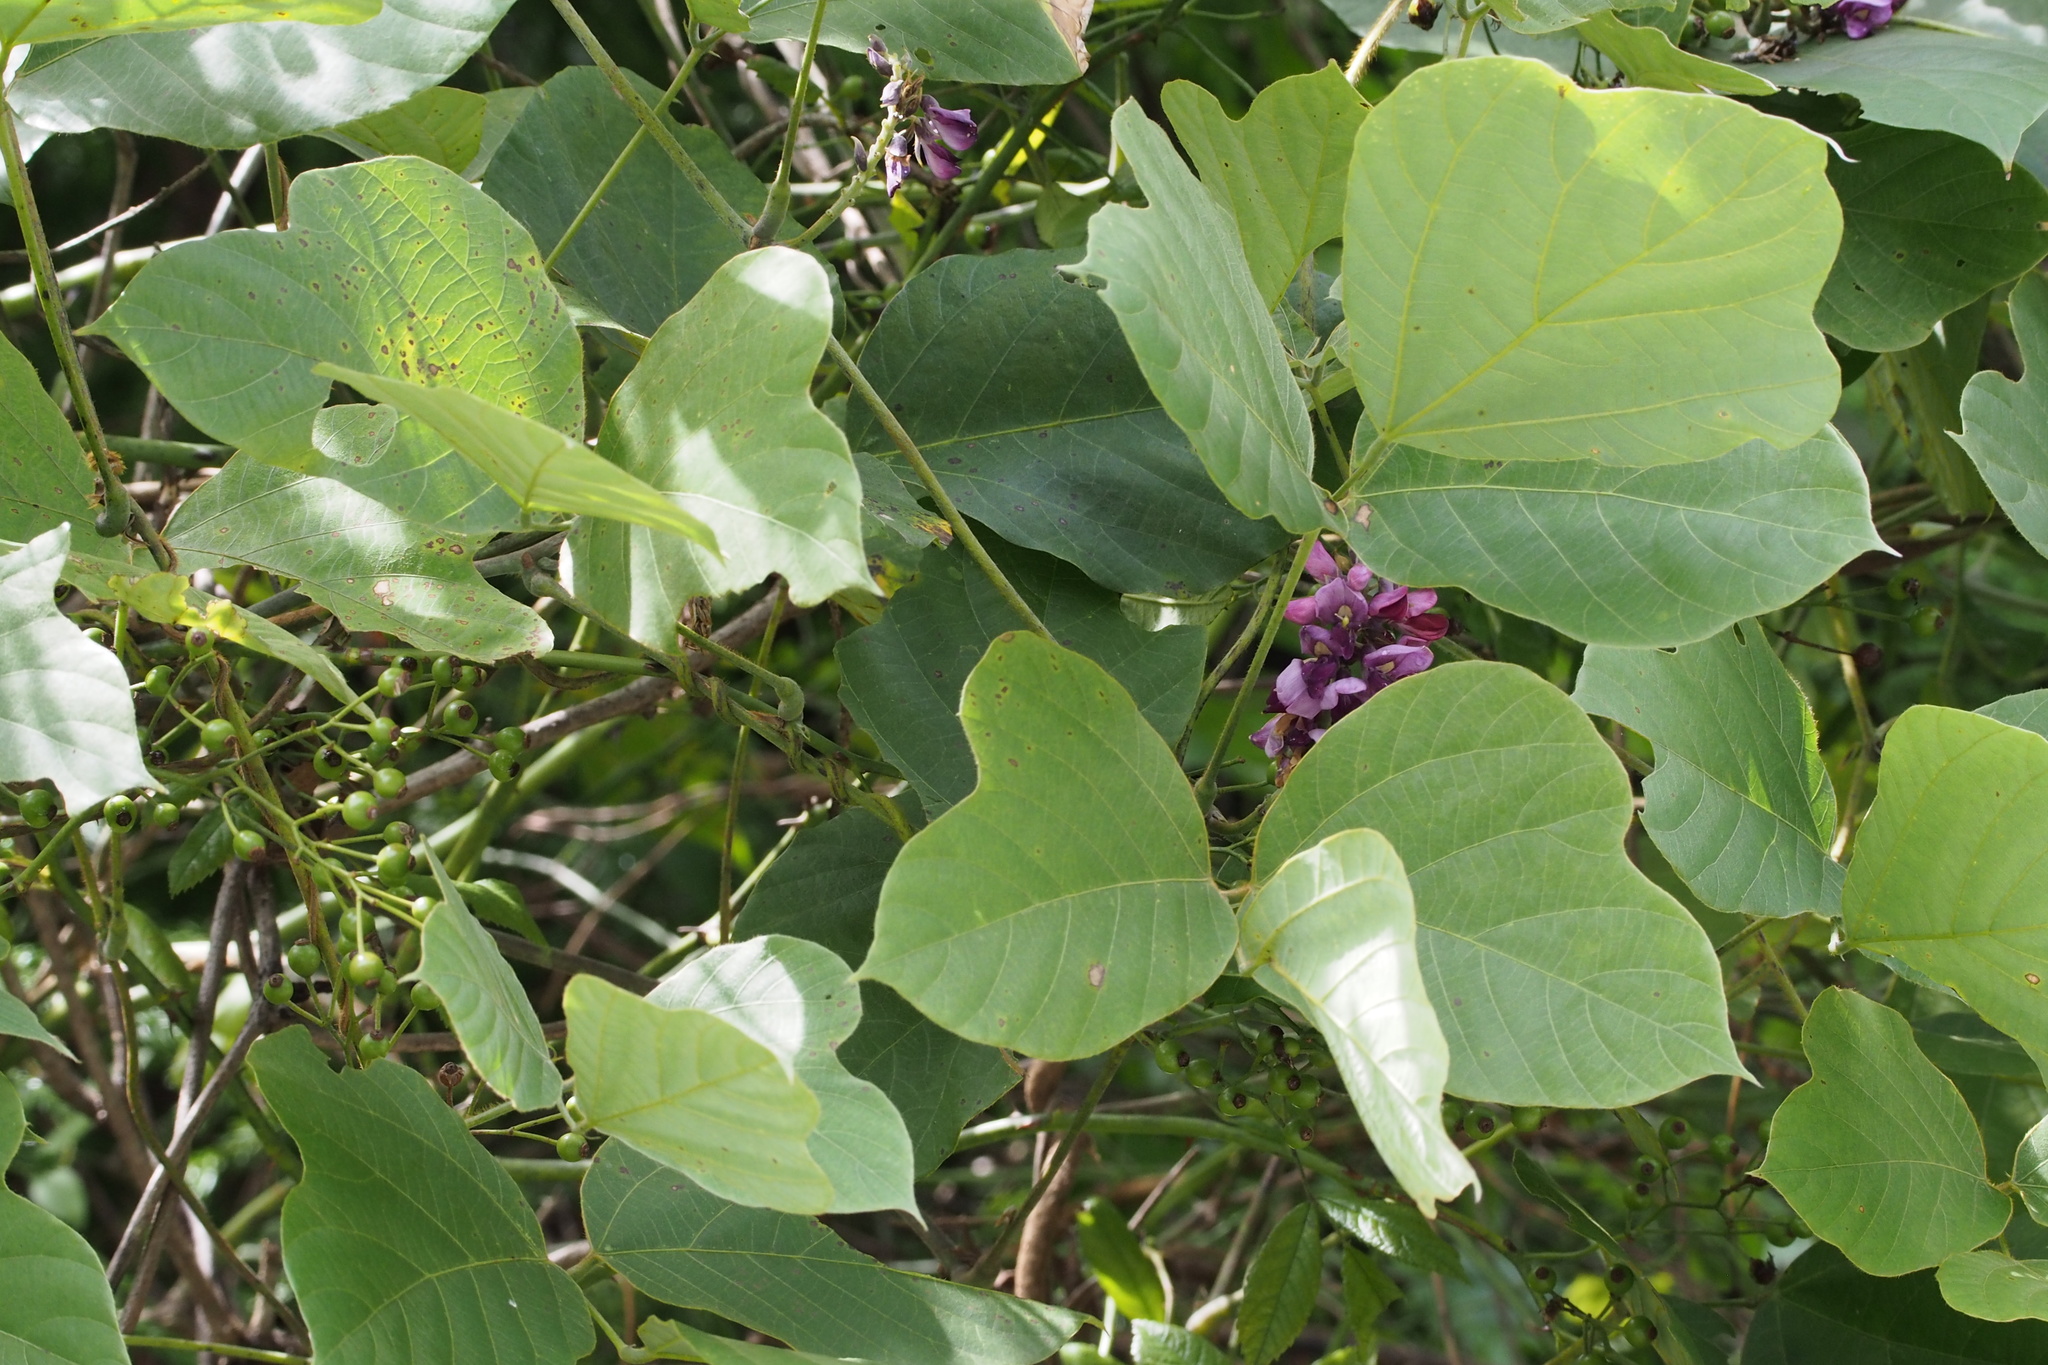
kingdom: Plantae
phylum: Tracheophyta
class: Magnoliopsida
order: Fabales
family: Fabaceae
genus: Pueraria
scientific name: Pueraria montana
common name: Kudzu
